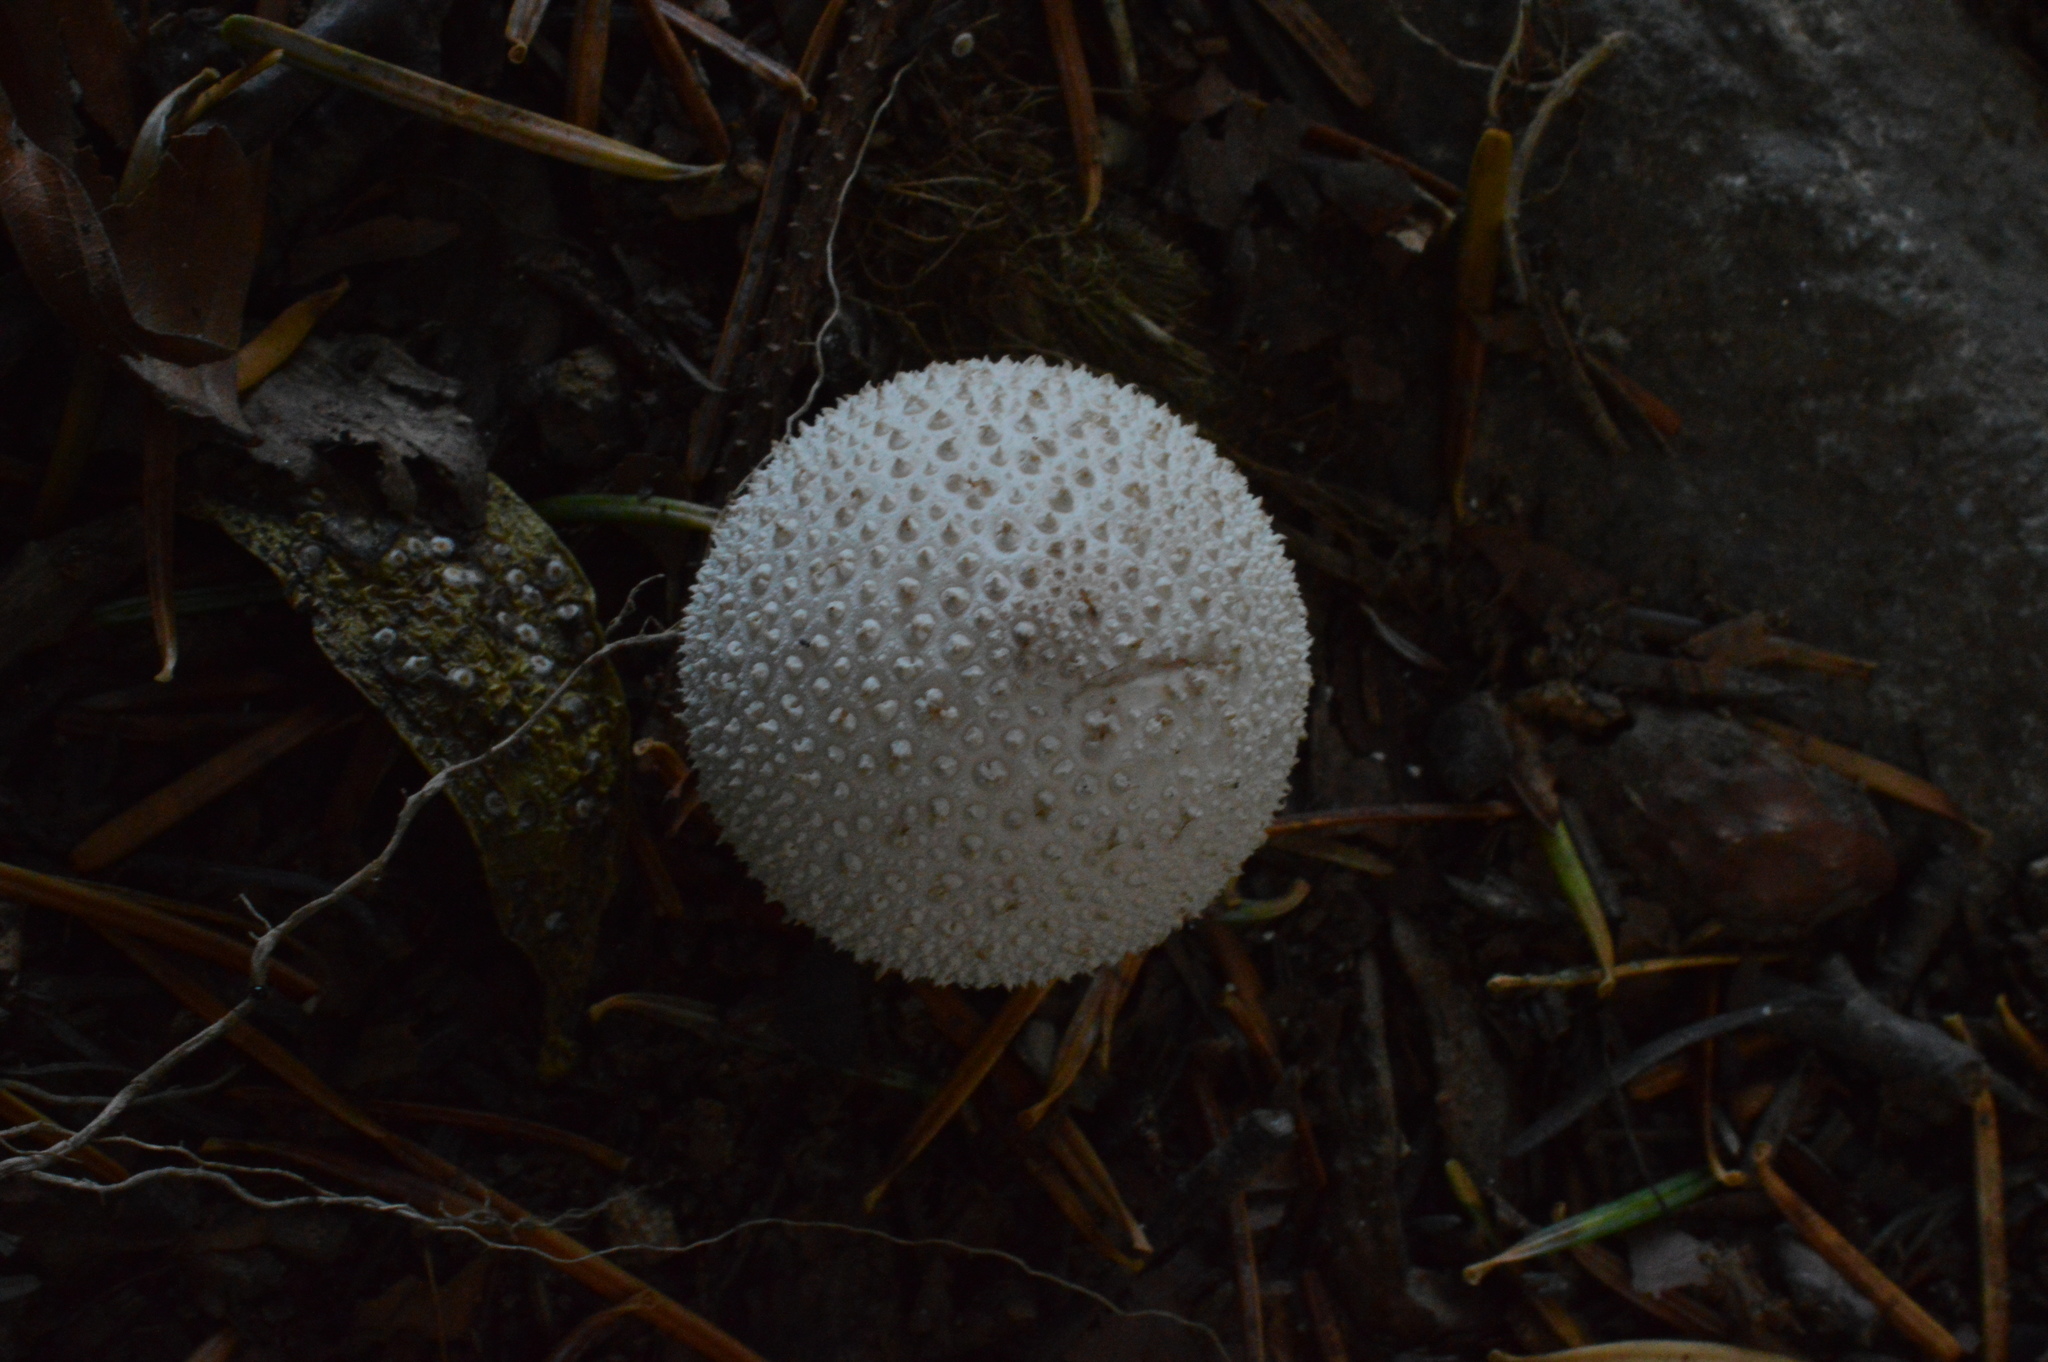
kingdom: Fungi
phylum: Basidiomycota
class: Agaricomycetes
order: Agaricales
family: Lycoperdaceae
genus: Lycoperdon
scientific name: Lycoperdon perlatum
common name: Common puffball
